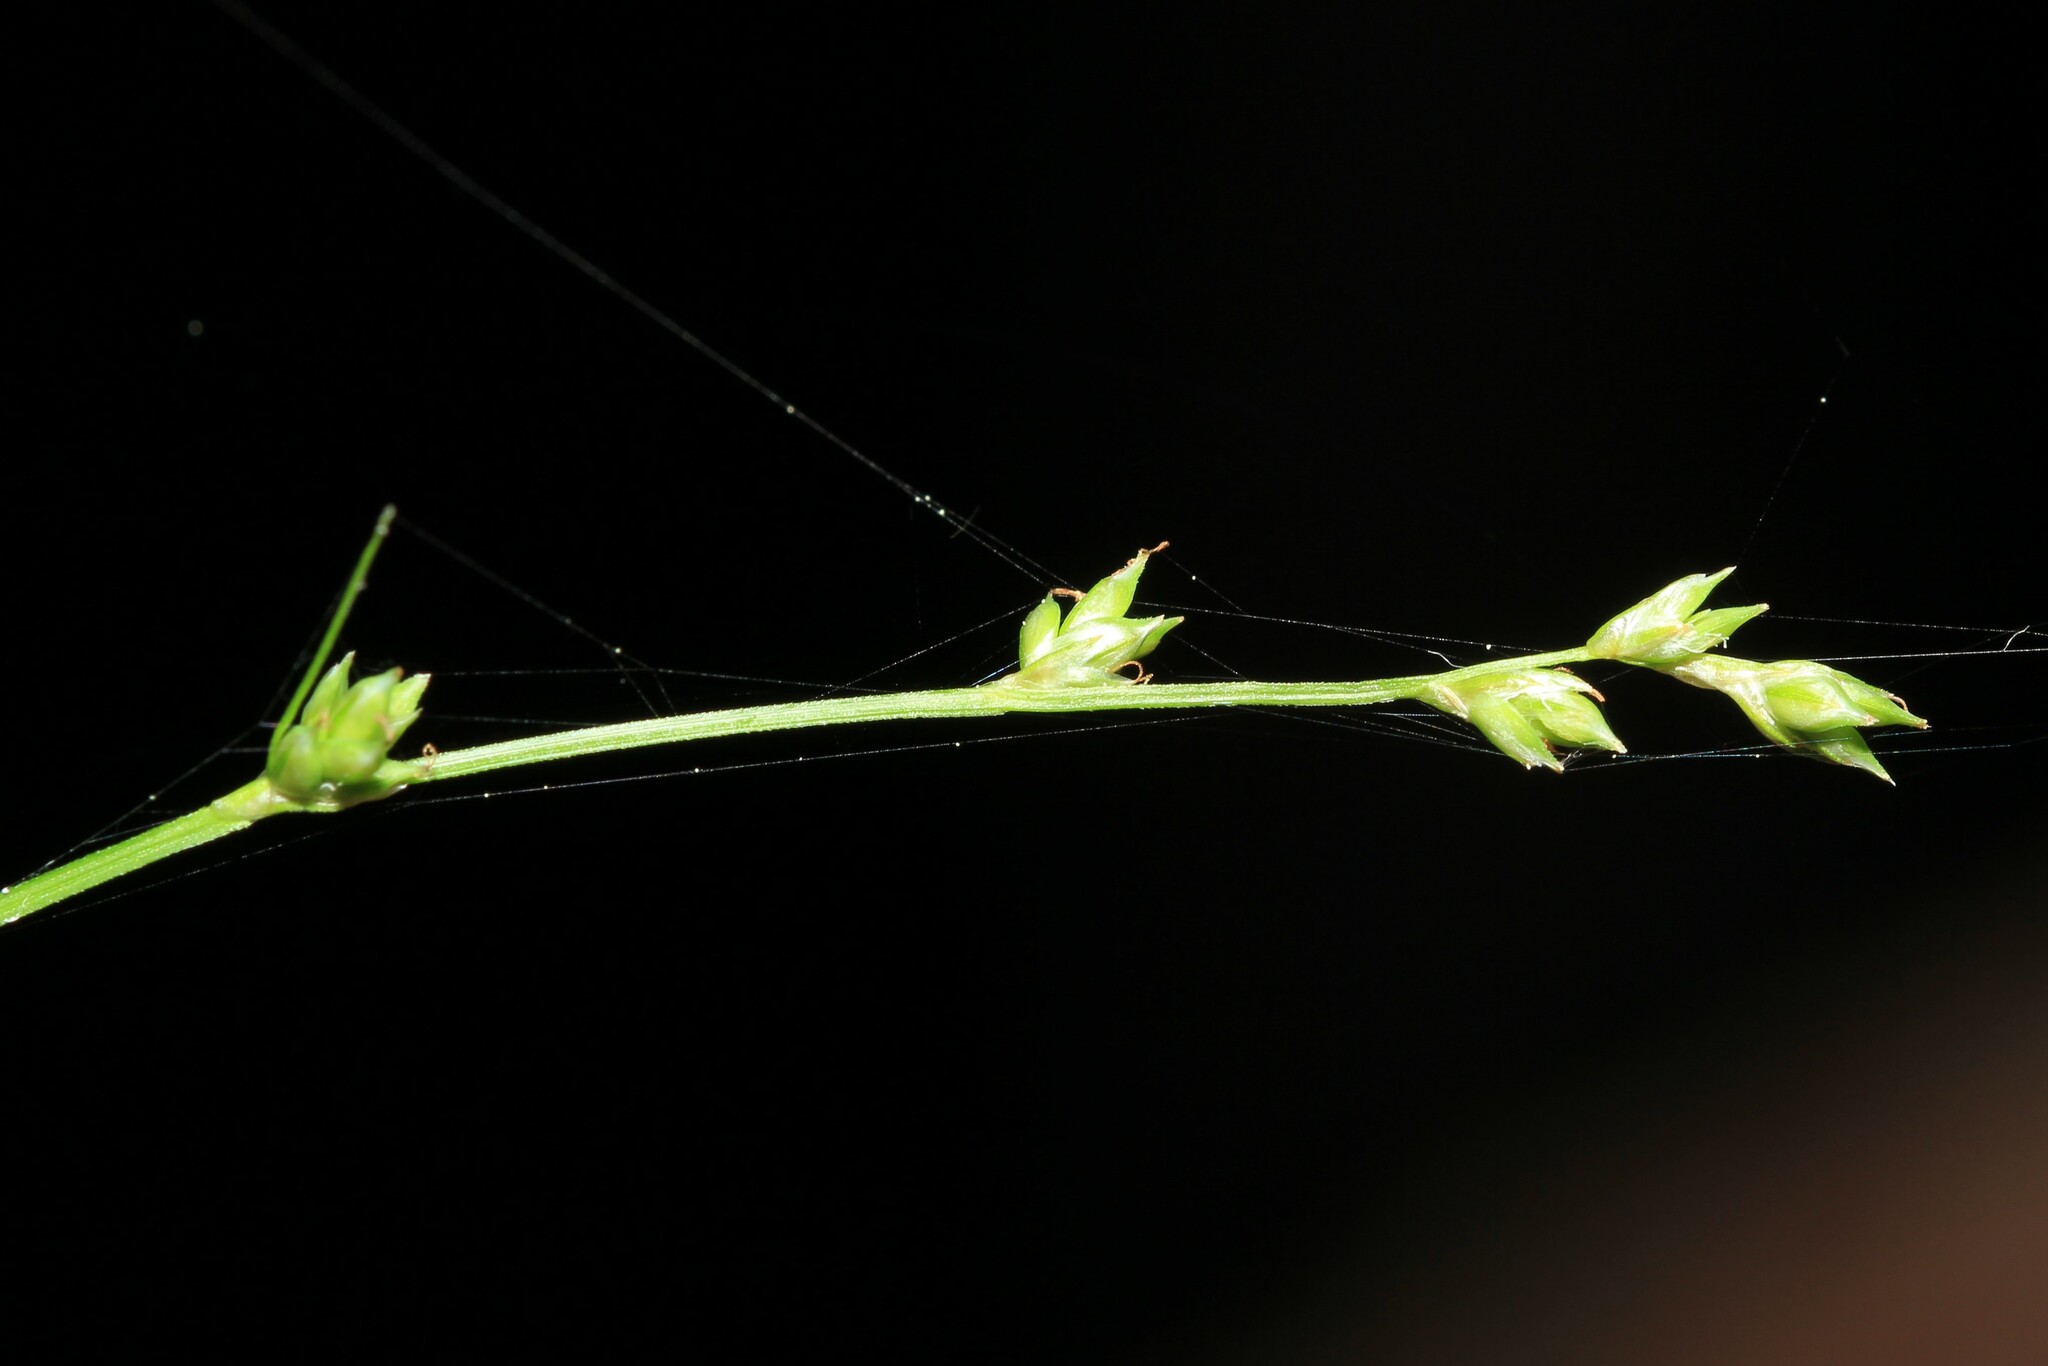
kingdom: Plantae
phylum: Tracheophyta
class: Liliopsida
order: Poales
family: Cyperaceae
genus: Carex
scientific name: Carex brunnescens
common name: Brown sedge
